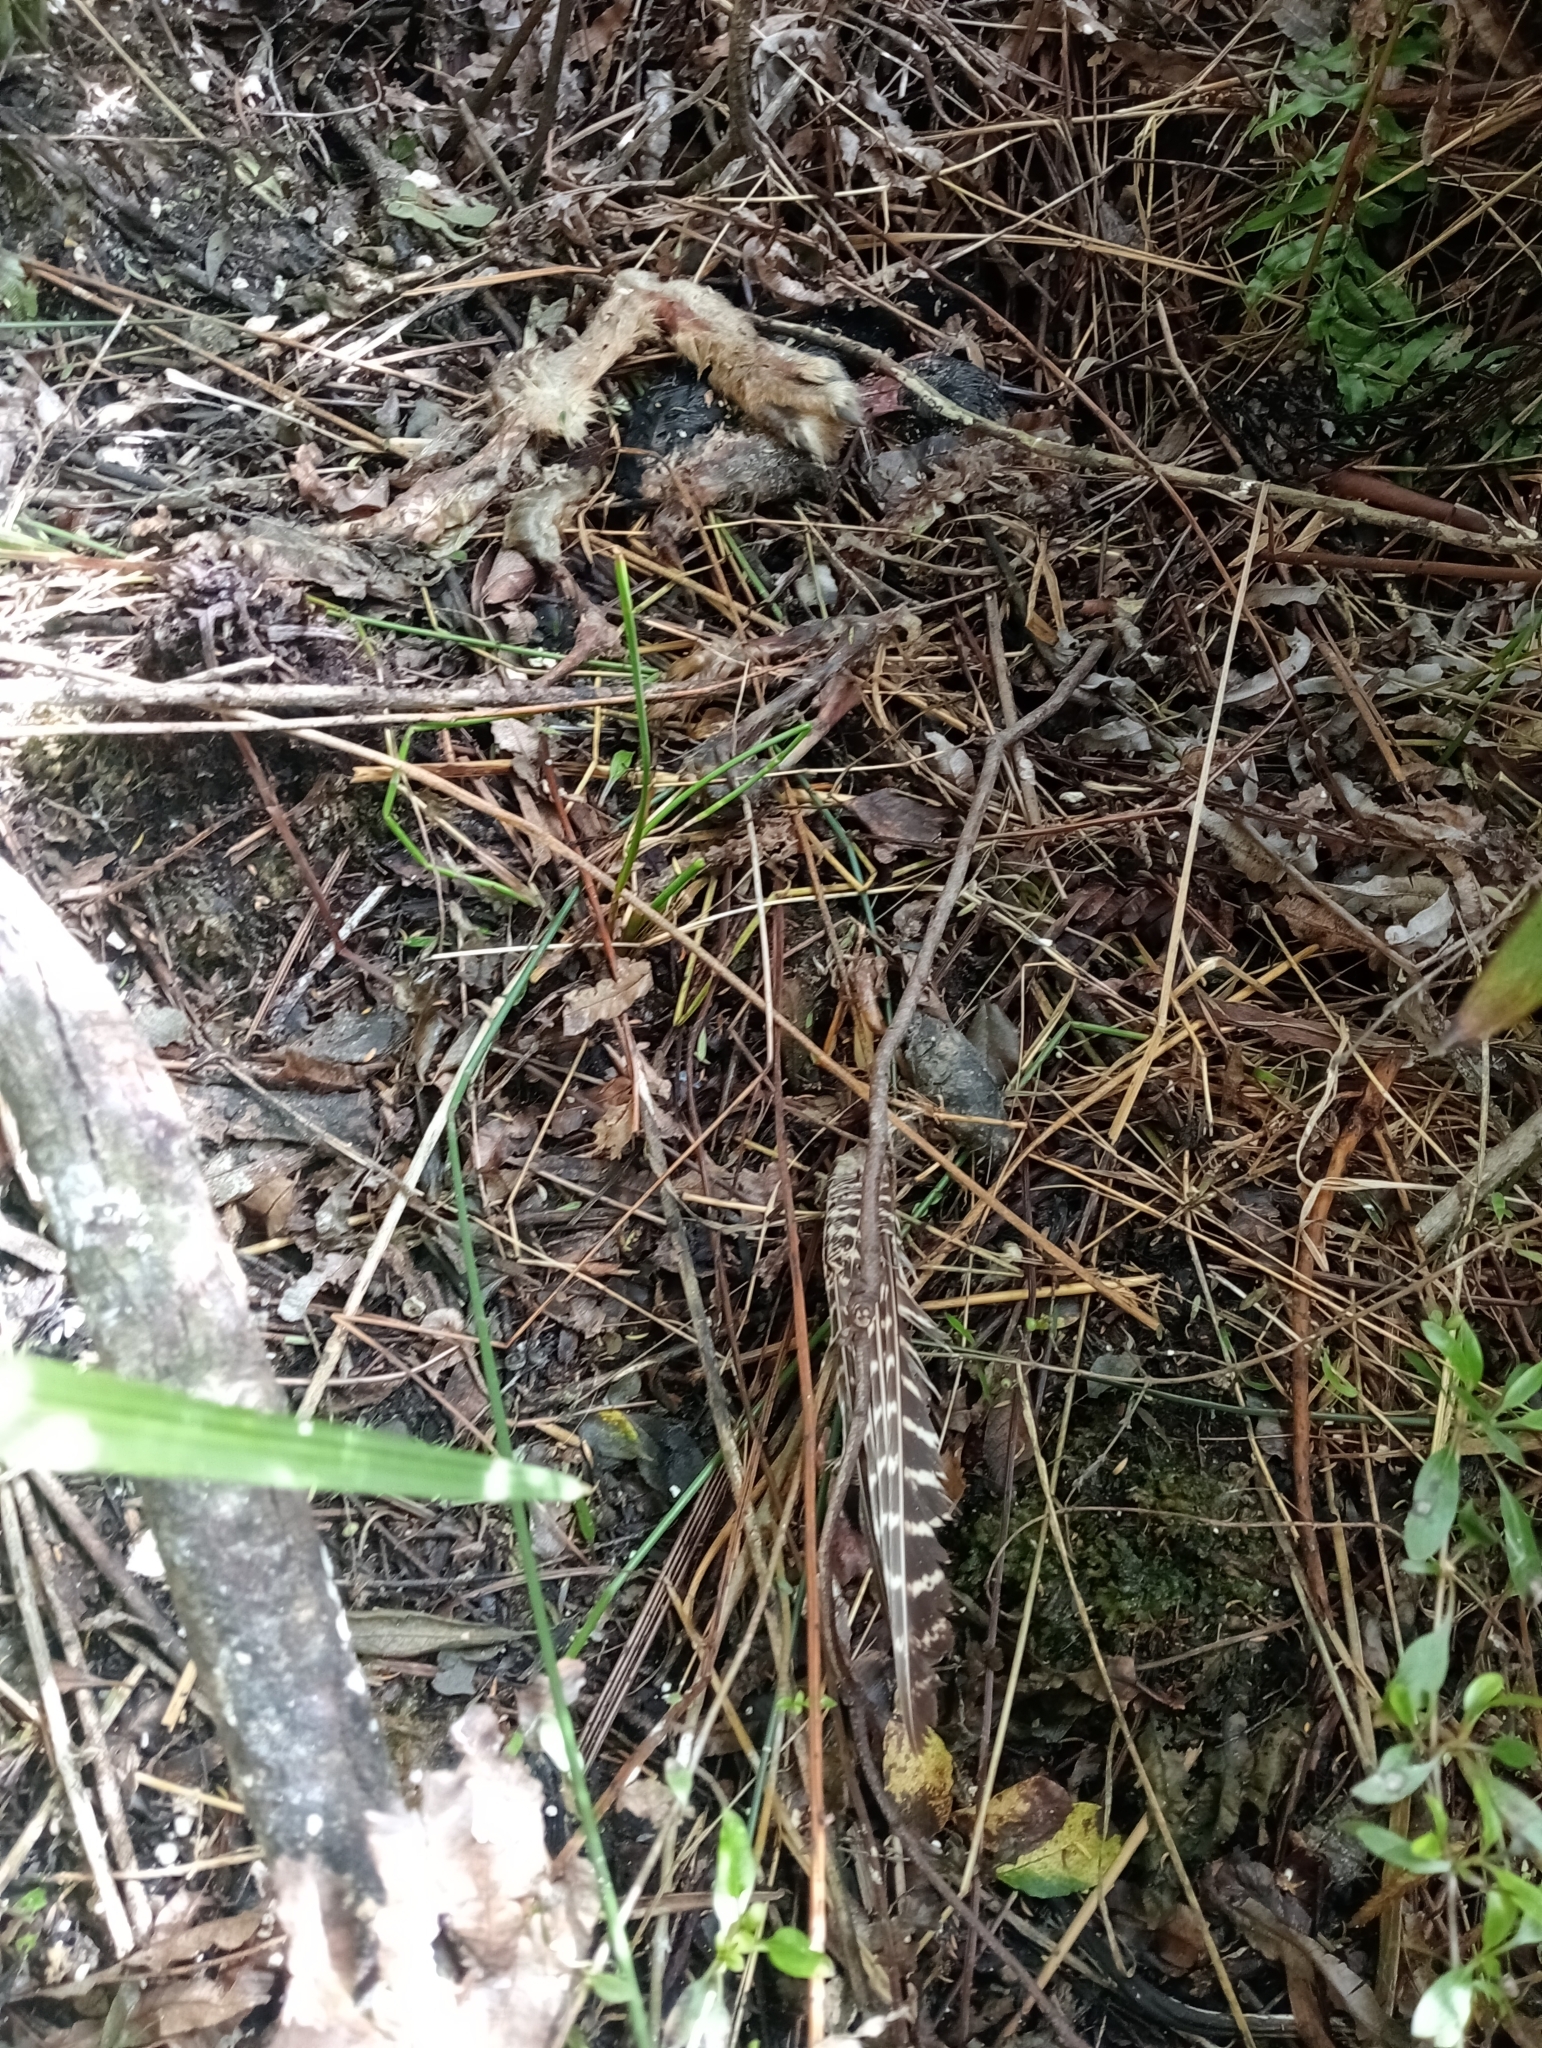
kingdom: Animalia
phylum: Chordata
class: Aves
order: Accipitriformes
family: Accipitridae
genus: Circus
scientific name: Circus approximans
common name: Swamp harrier
